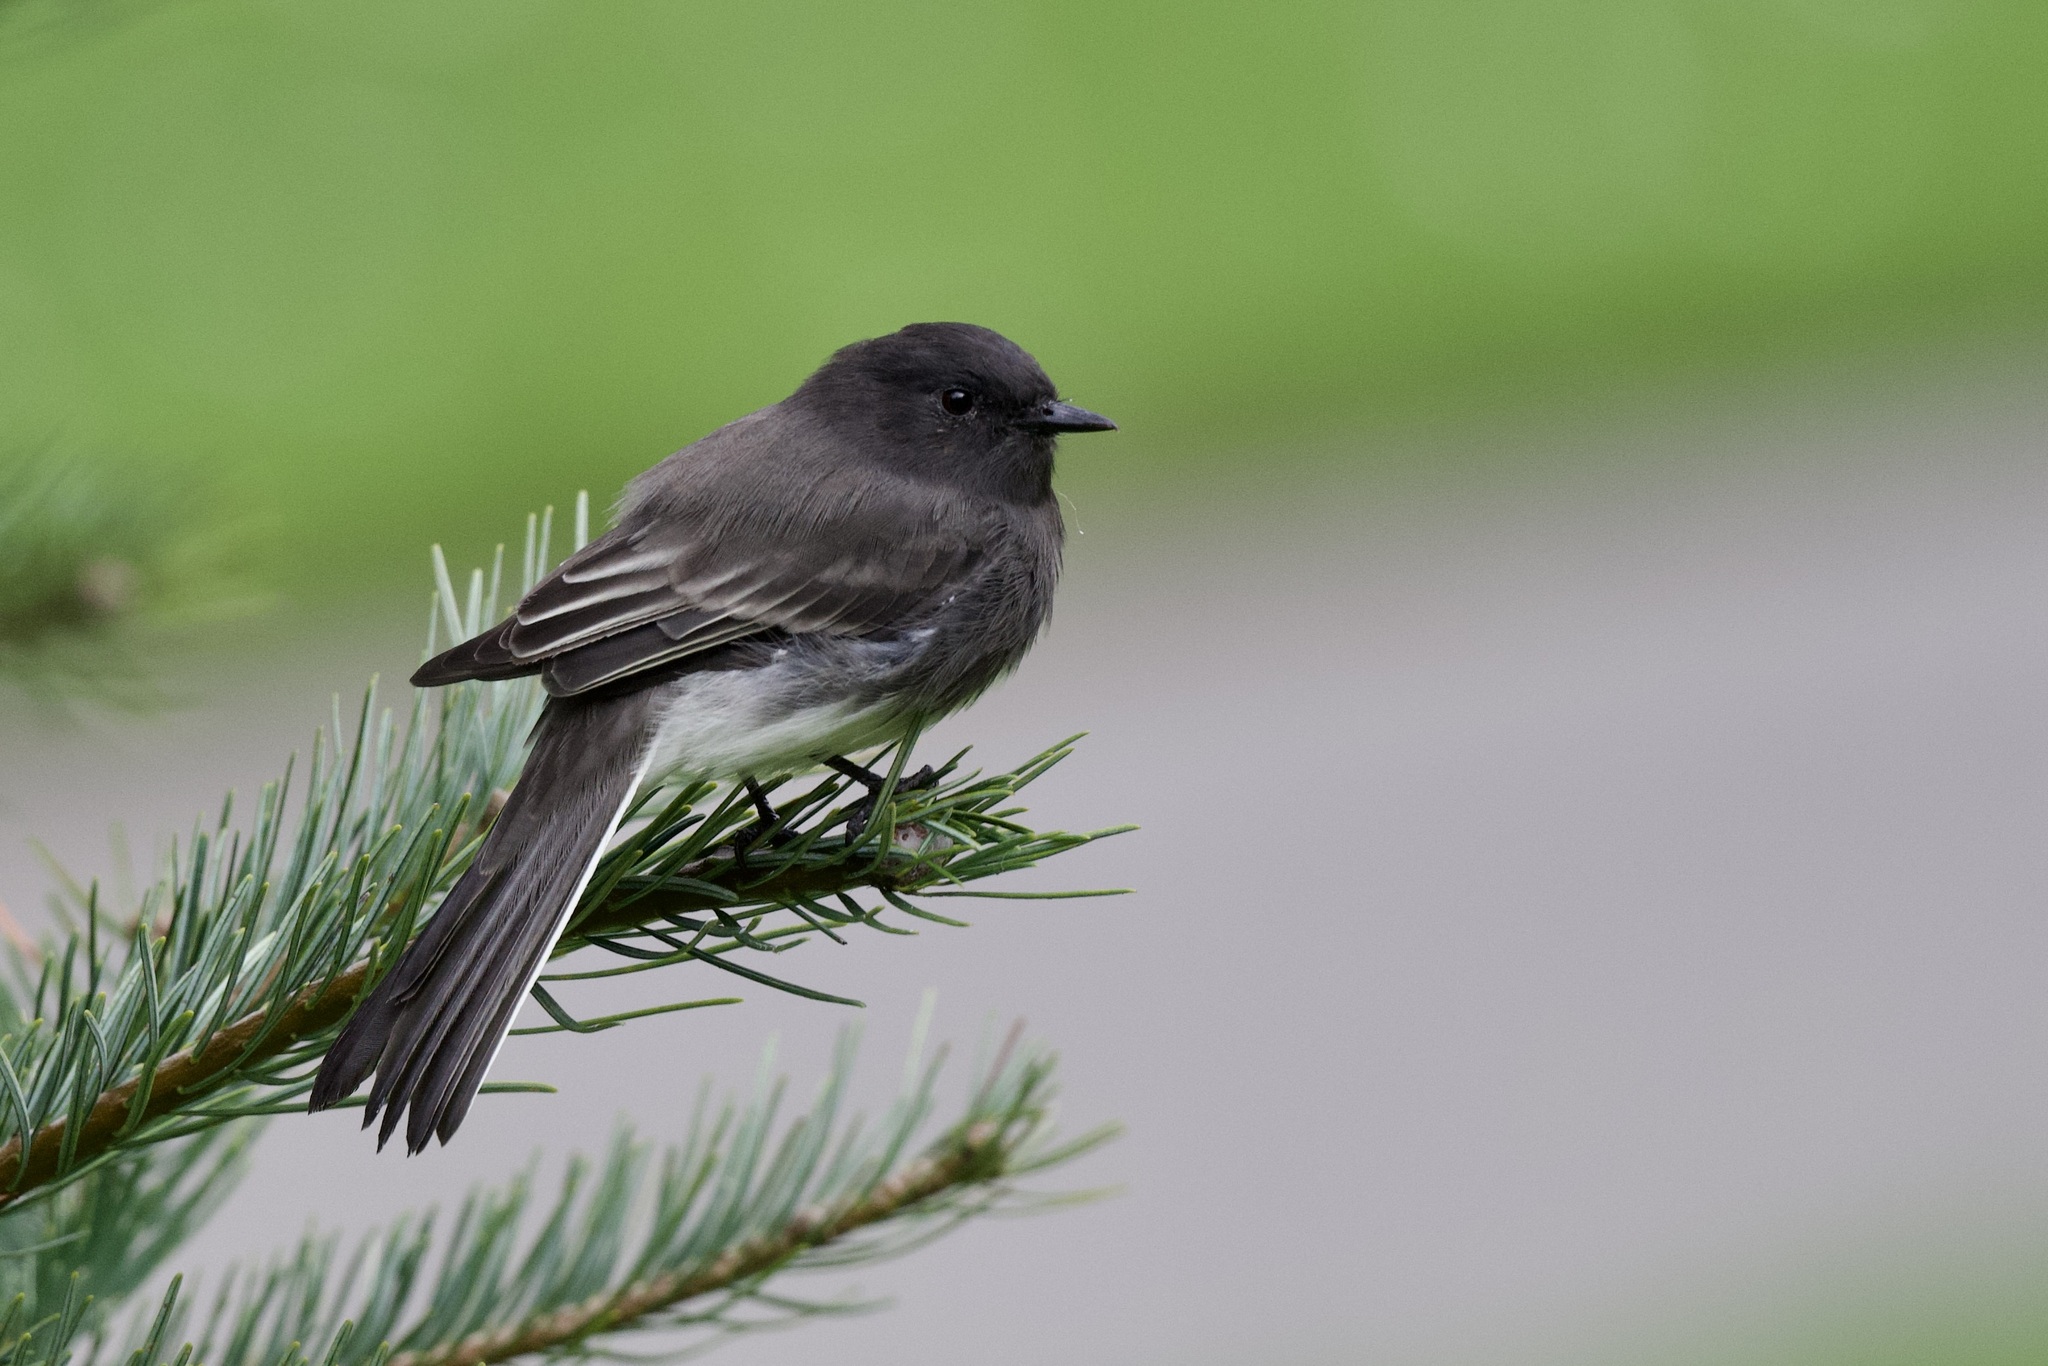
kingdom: Animalia
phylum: Chordata
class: Aves
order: Passeriformes
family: Tyrannidae
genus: Sayornis
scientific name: Sayornis nigricans
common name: Black phoebe
